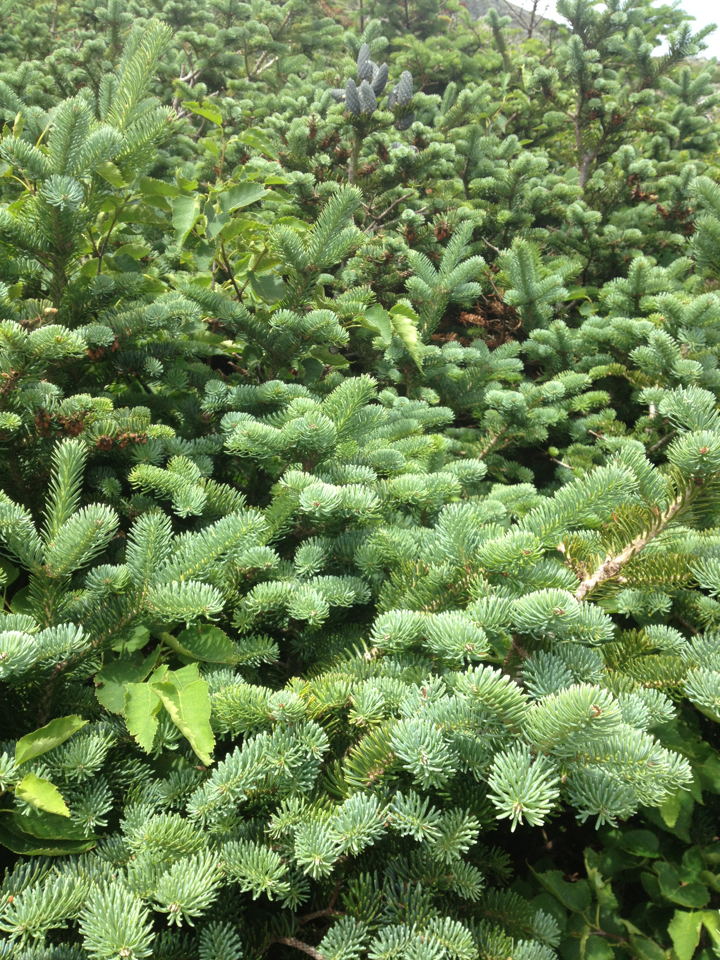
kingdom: Plantae
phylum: Tracheophyta
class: Pinopsida
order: Pinales
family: Pinaceae
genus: Abies
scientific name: Abies balsamea
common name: Balsam fir
